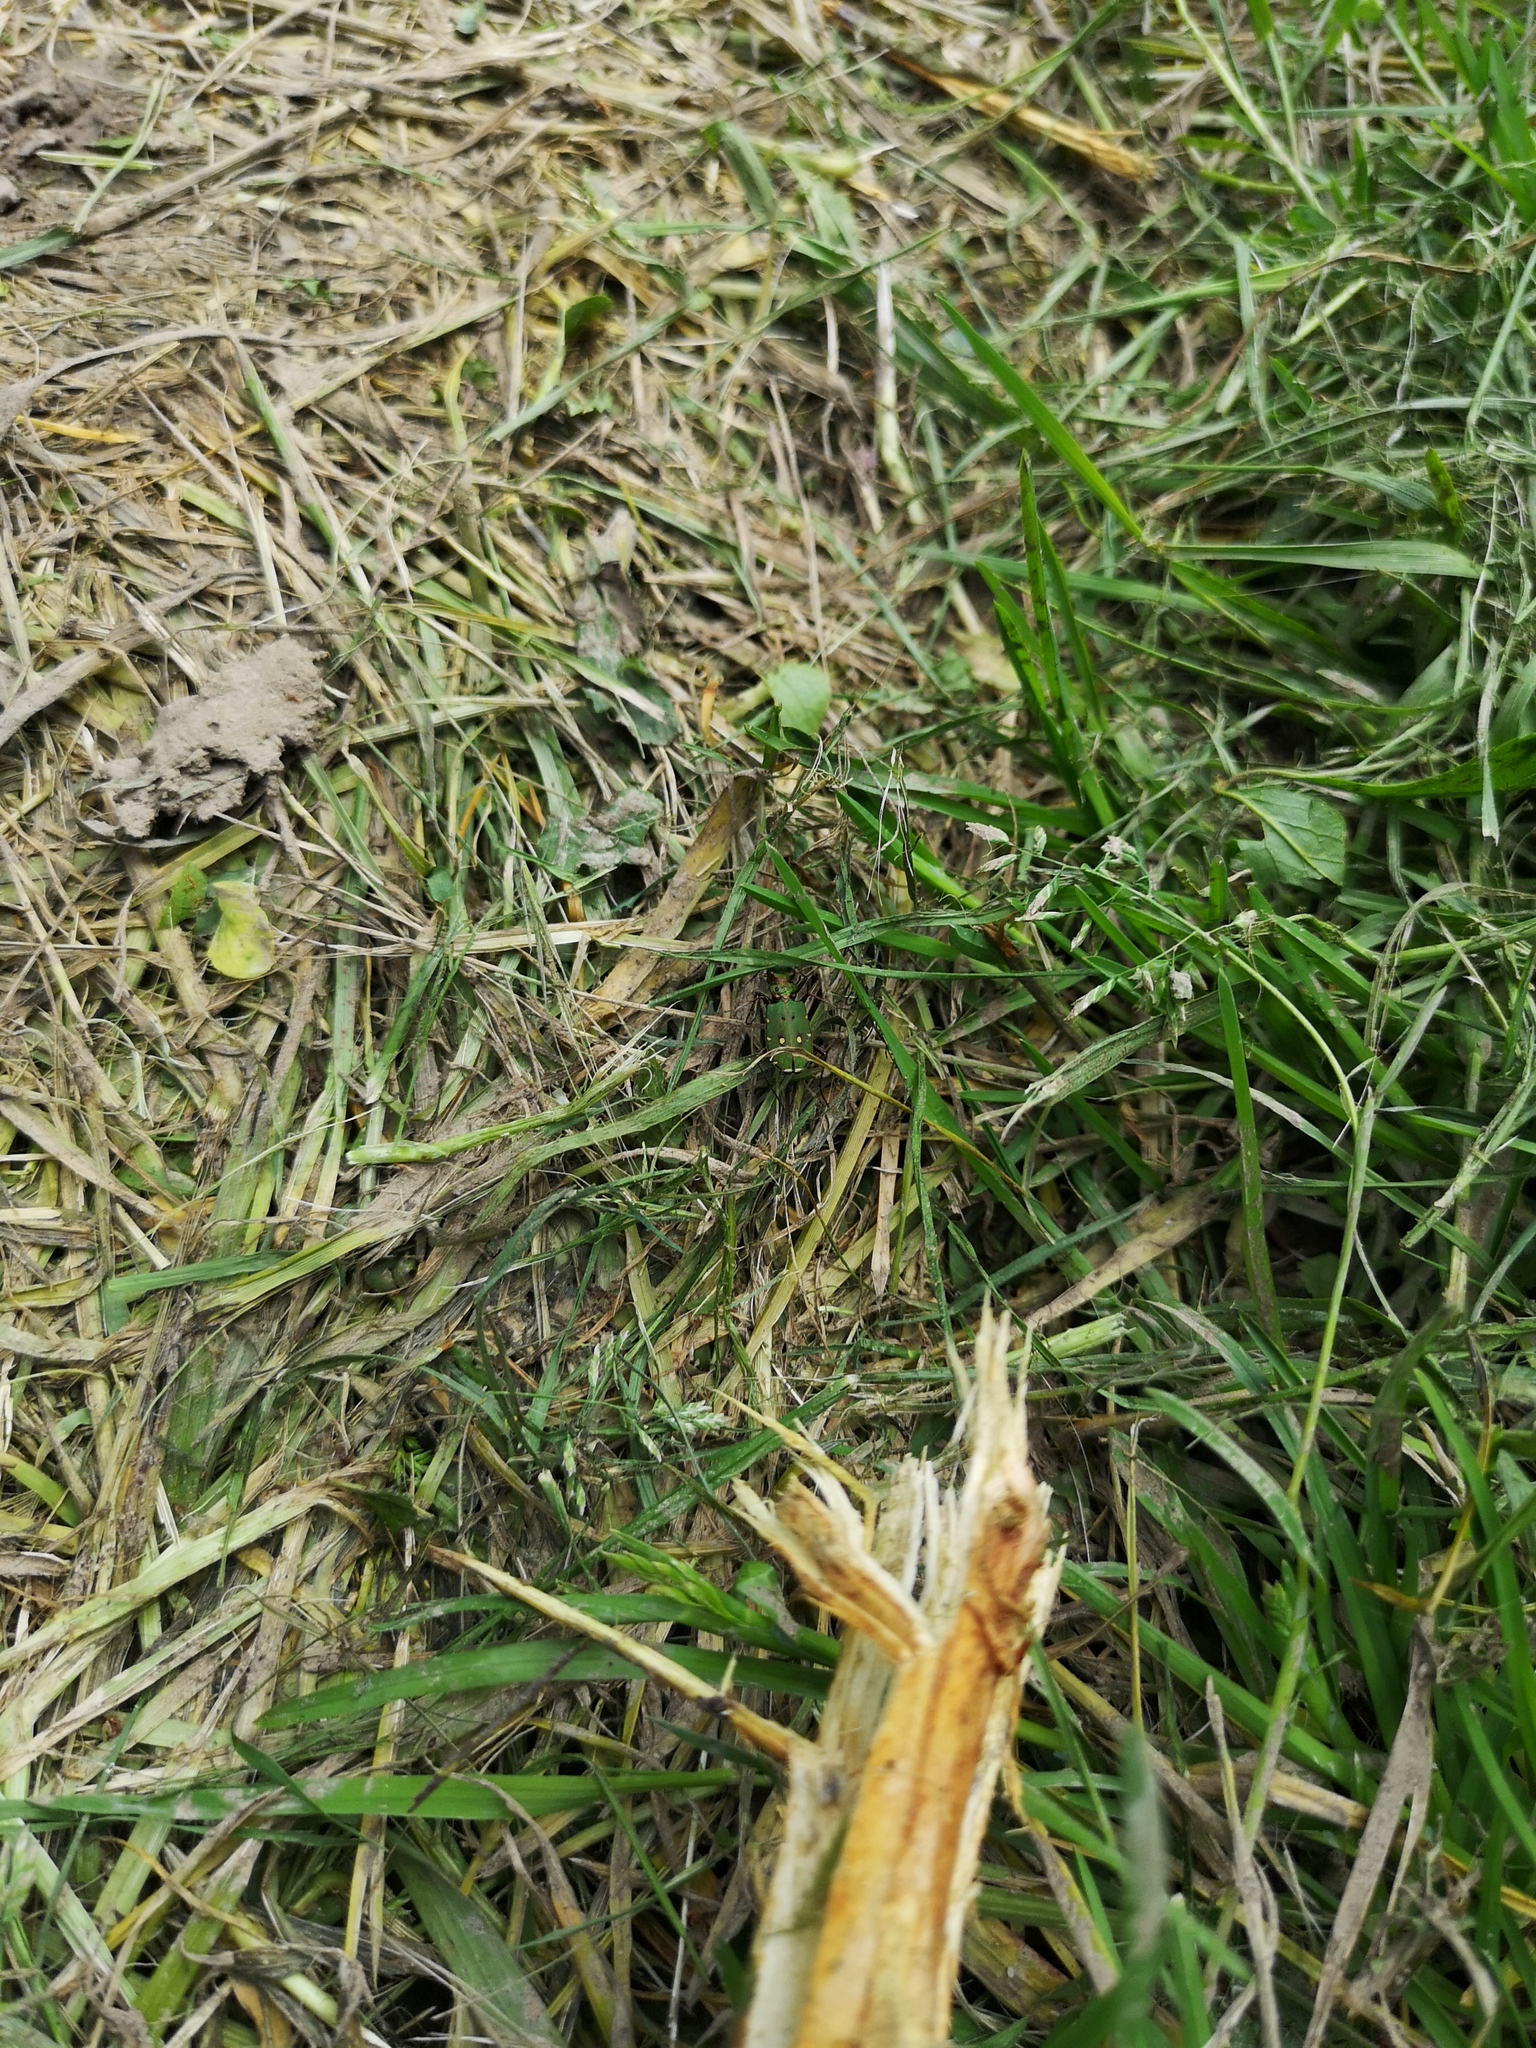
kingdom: Animalia
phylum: Arthropoda
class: Insecta
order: Coleoptera
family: Carabidae
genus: Cicindela
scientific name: Cicindela campestris
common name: Common tiger beetle
